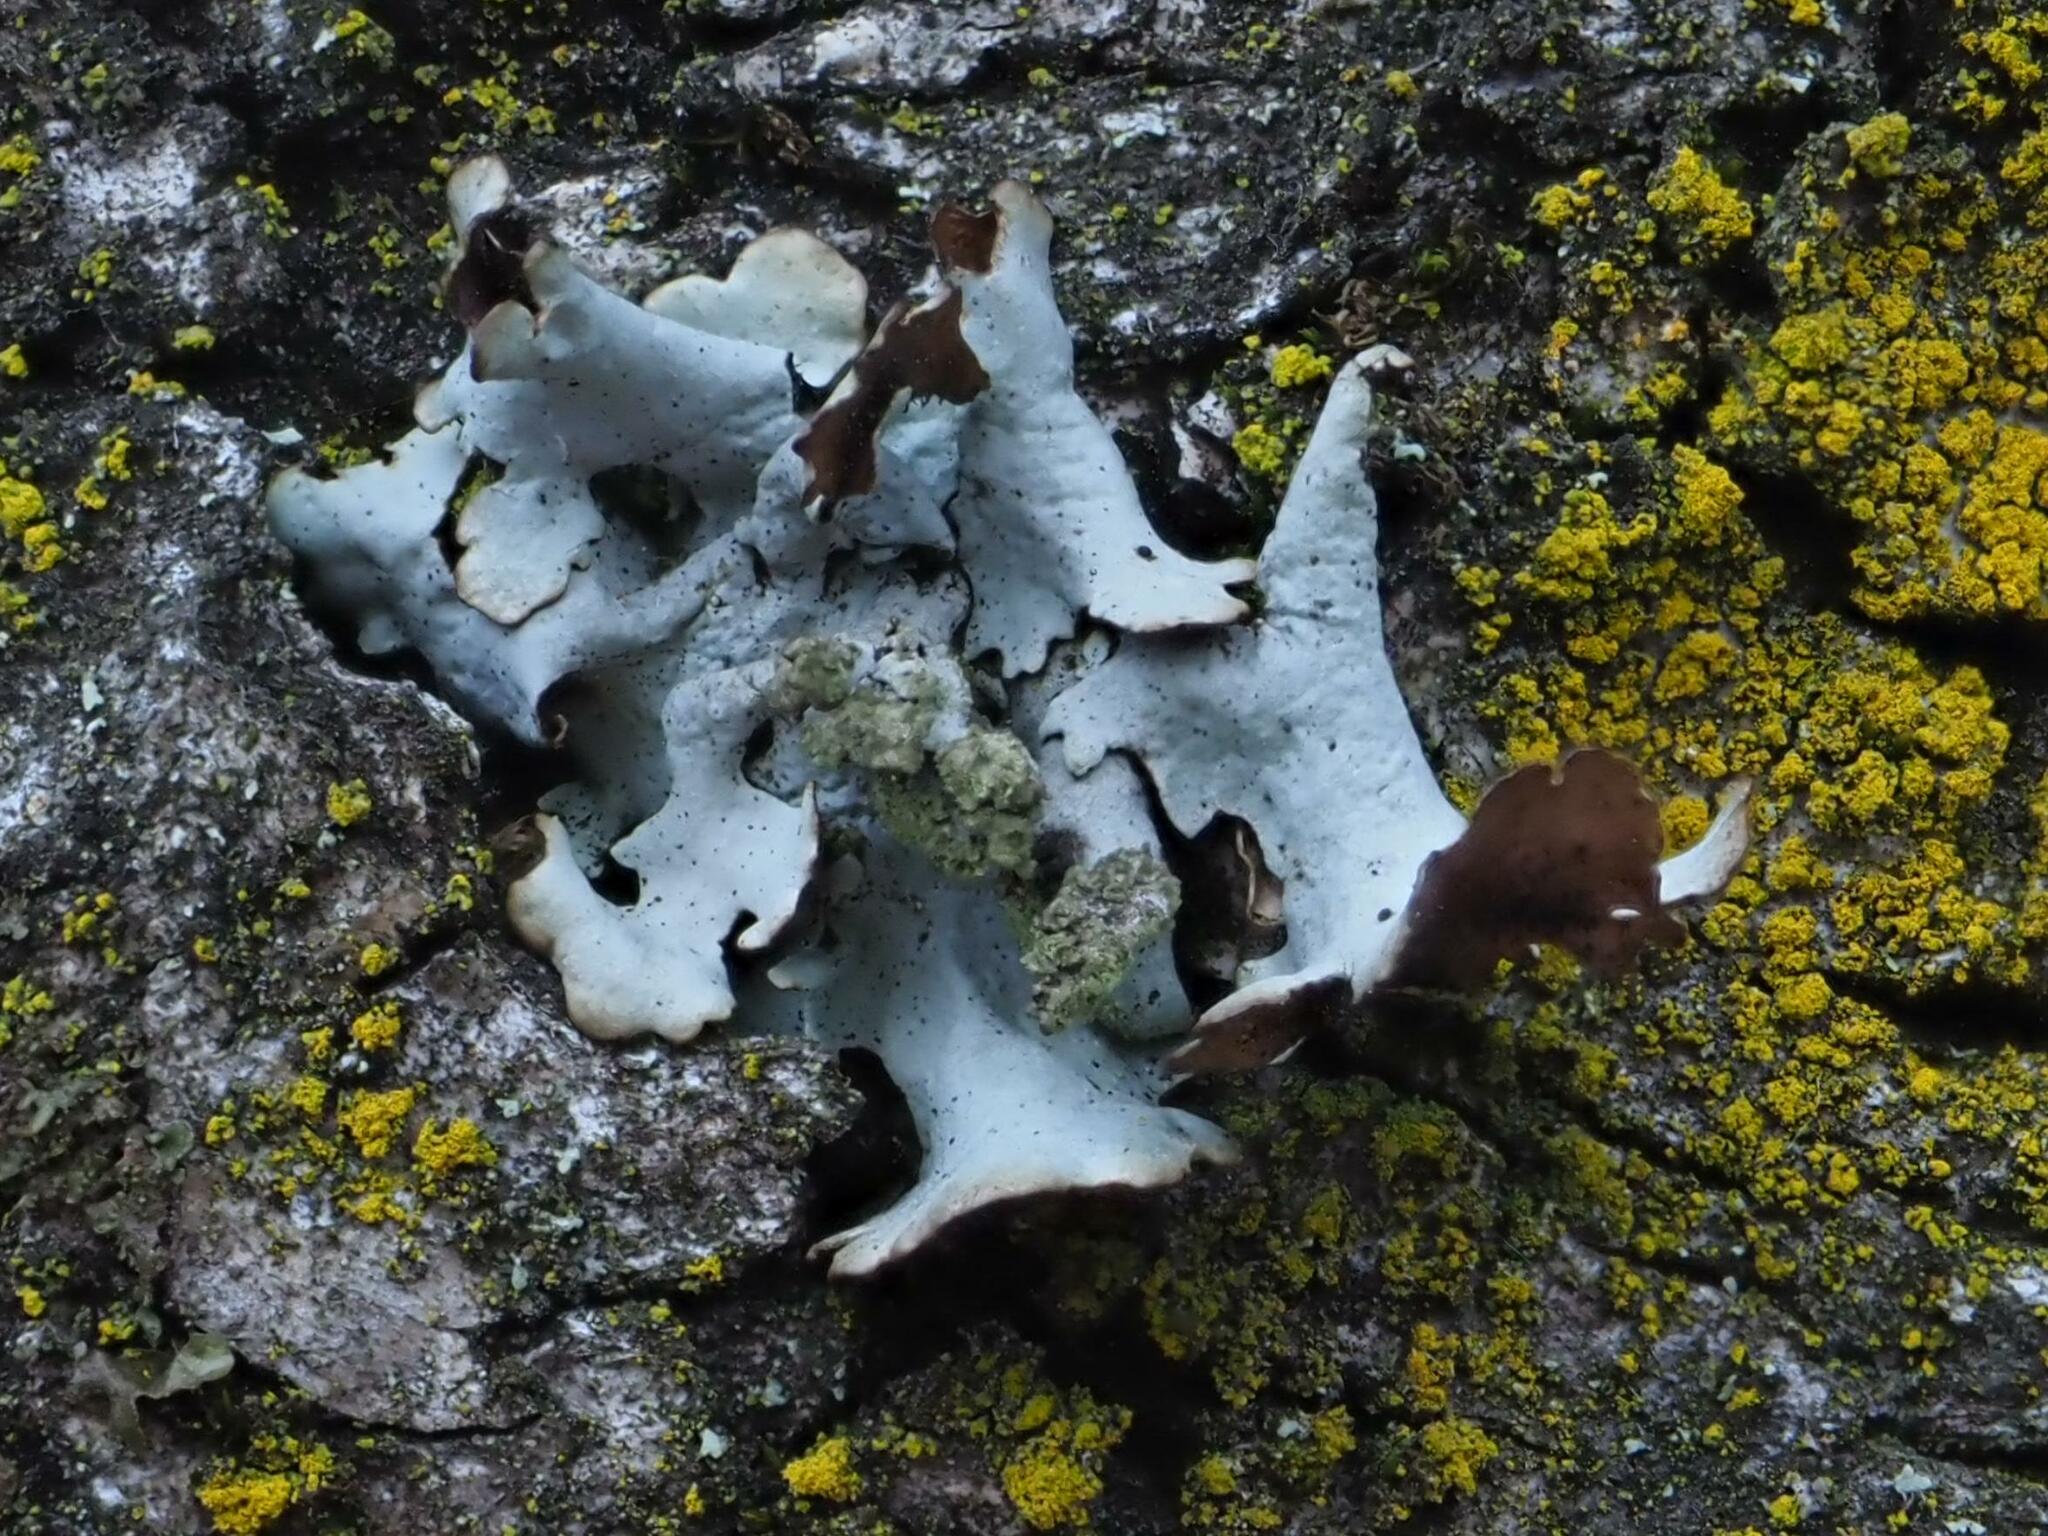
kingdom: Fungi
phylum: Ascomycota
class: Lecanoromycetes
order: Lecanorales
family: Parmeliaceae
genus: Parmotrema
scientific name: Parmotrema perlatum
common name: Black stone flower
